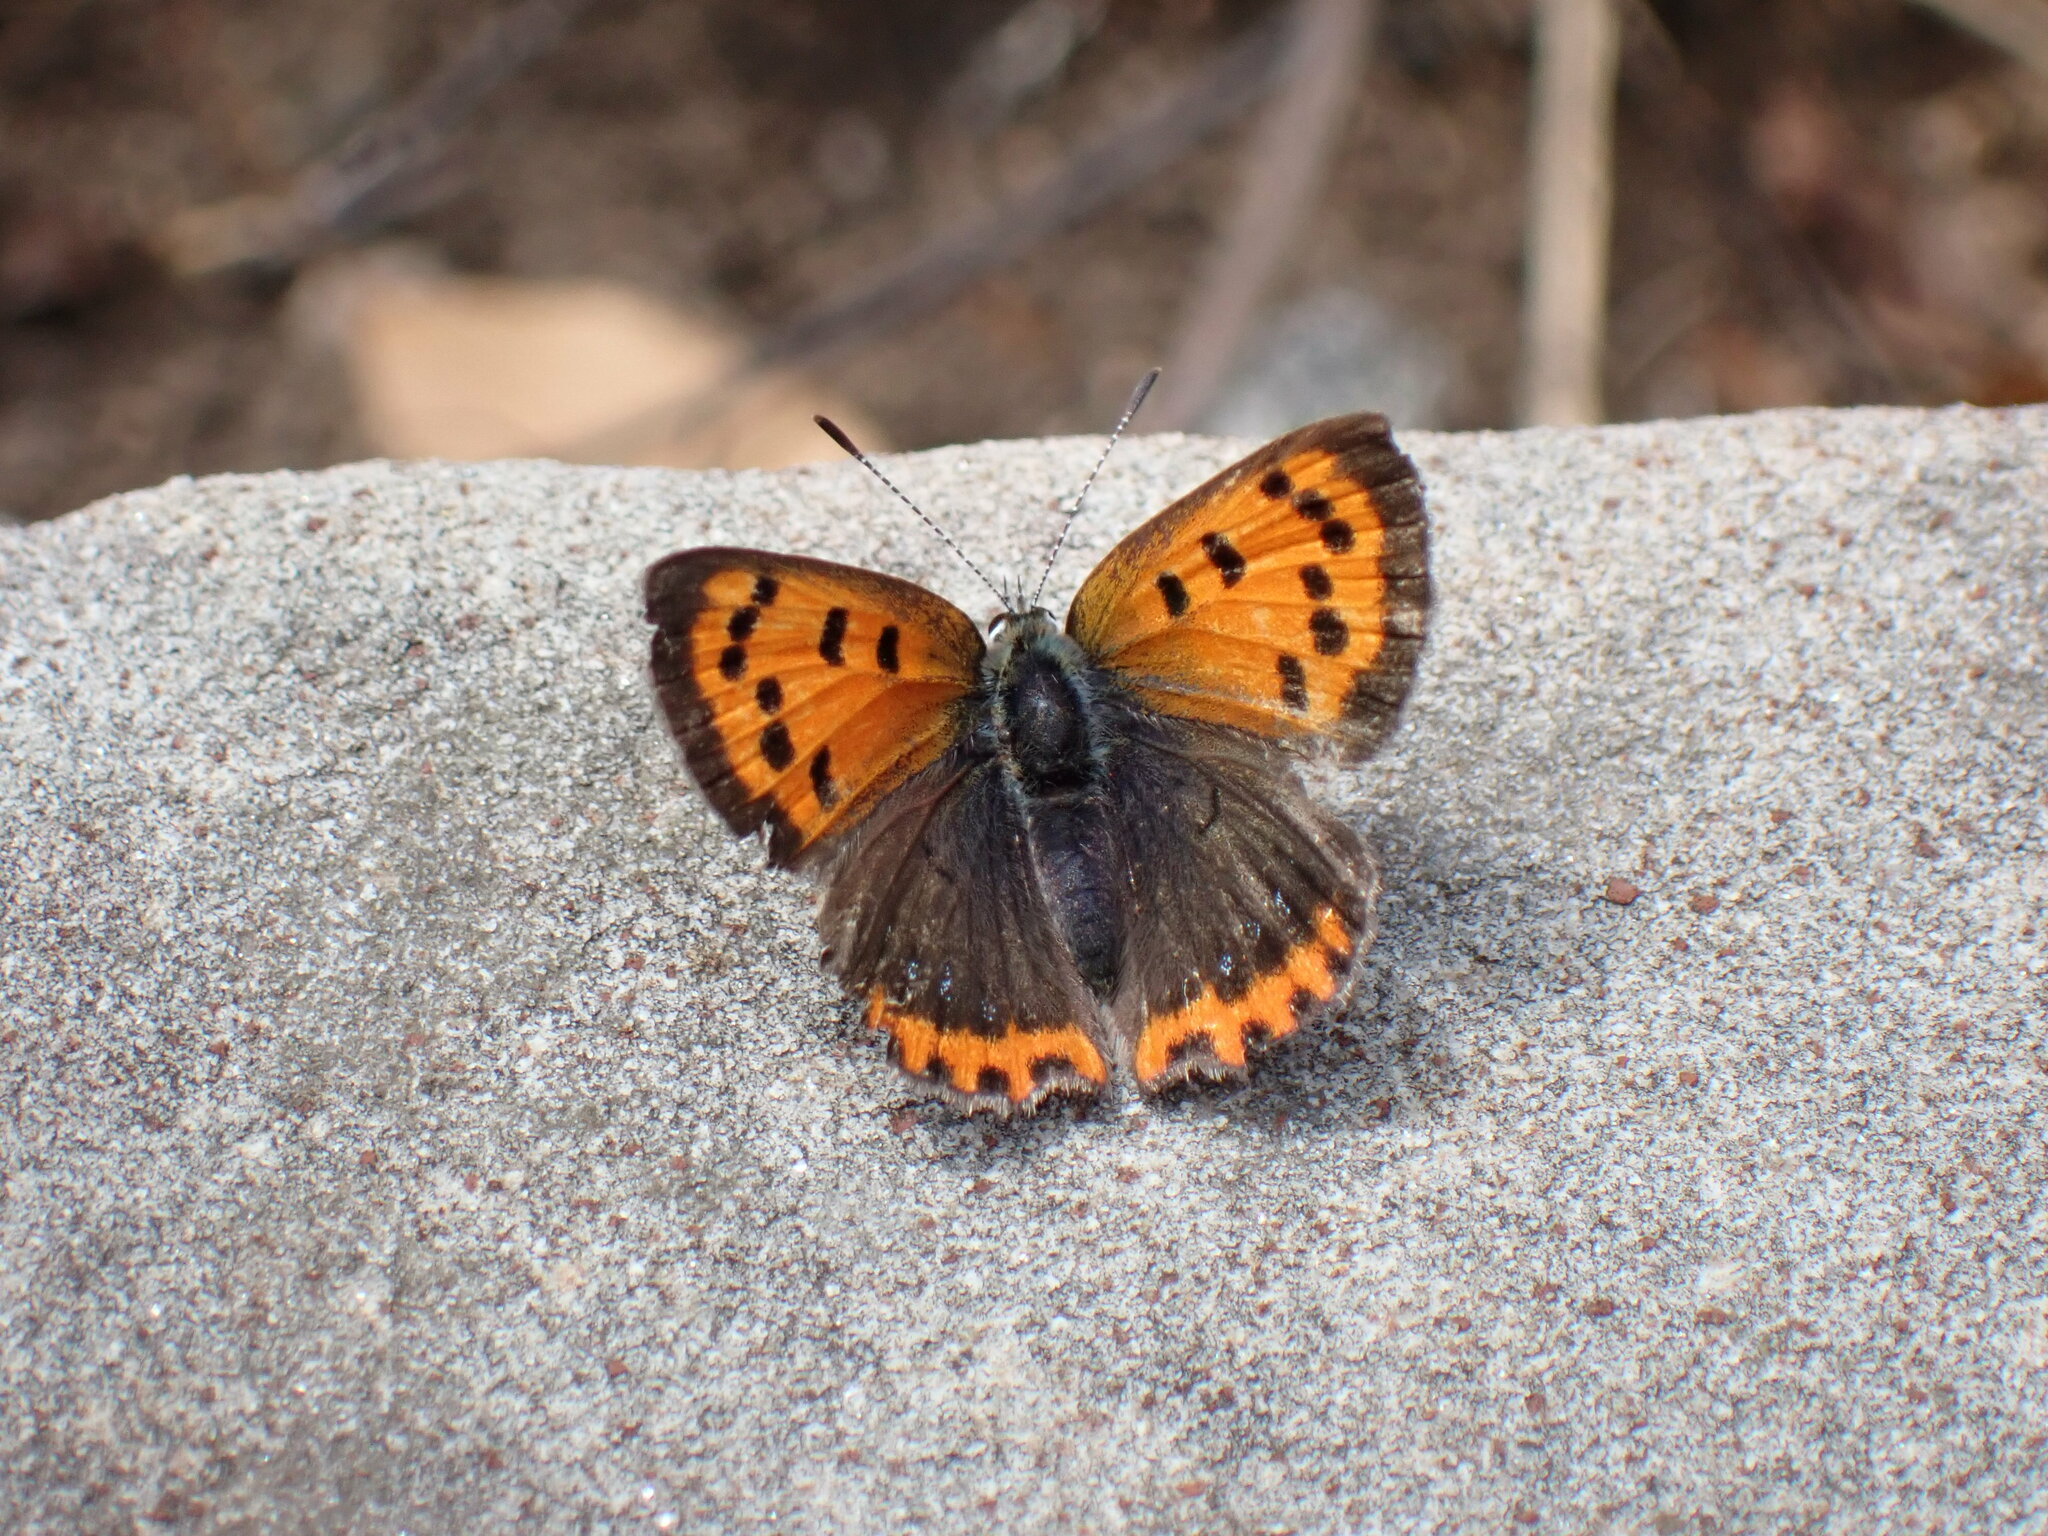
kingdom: Animalia
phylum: Arthropoda
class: Insecta
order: Lepidoptera
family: Lycaenidae
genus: Lycaena
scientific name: Lycaena phlaeas
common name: Small copper
